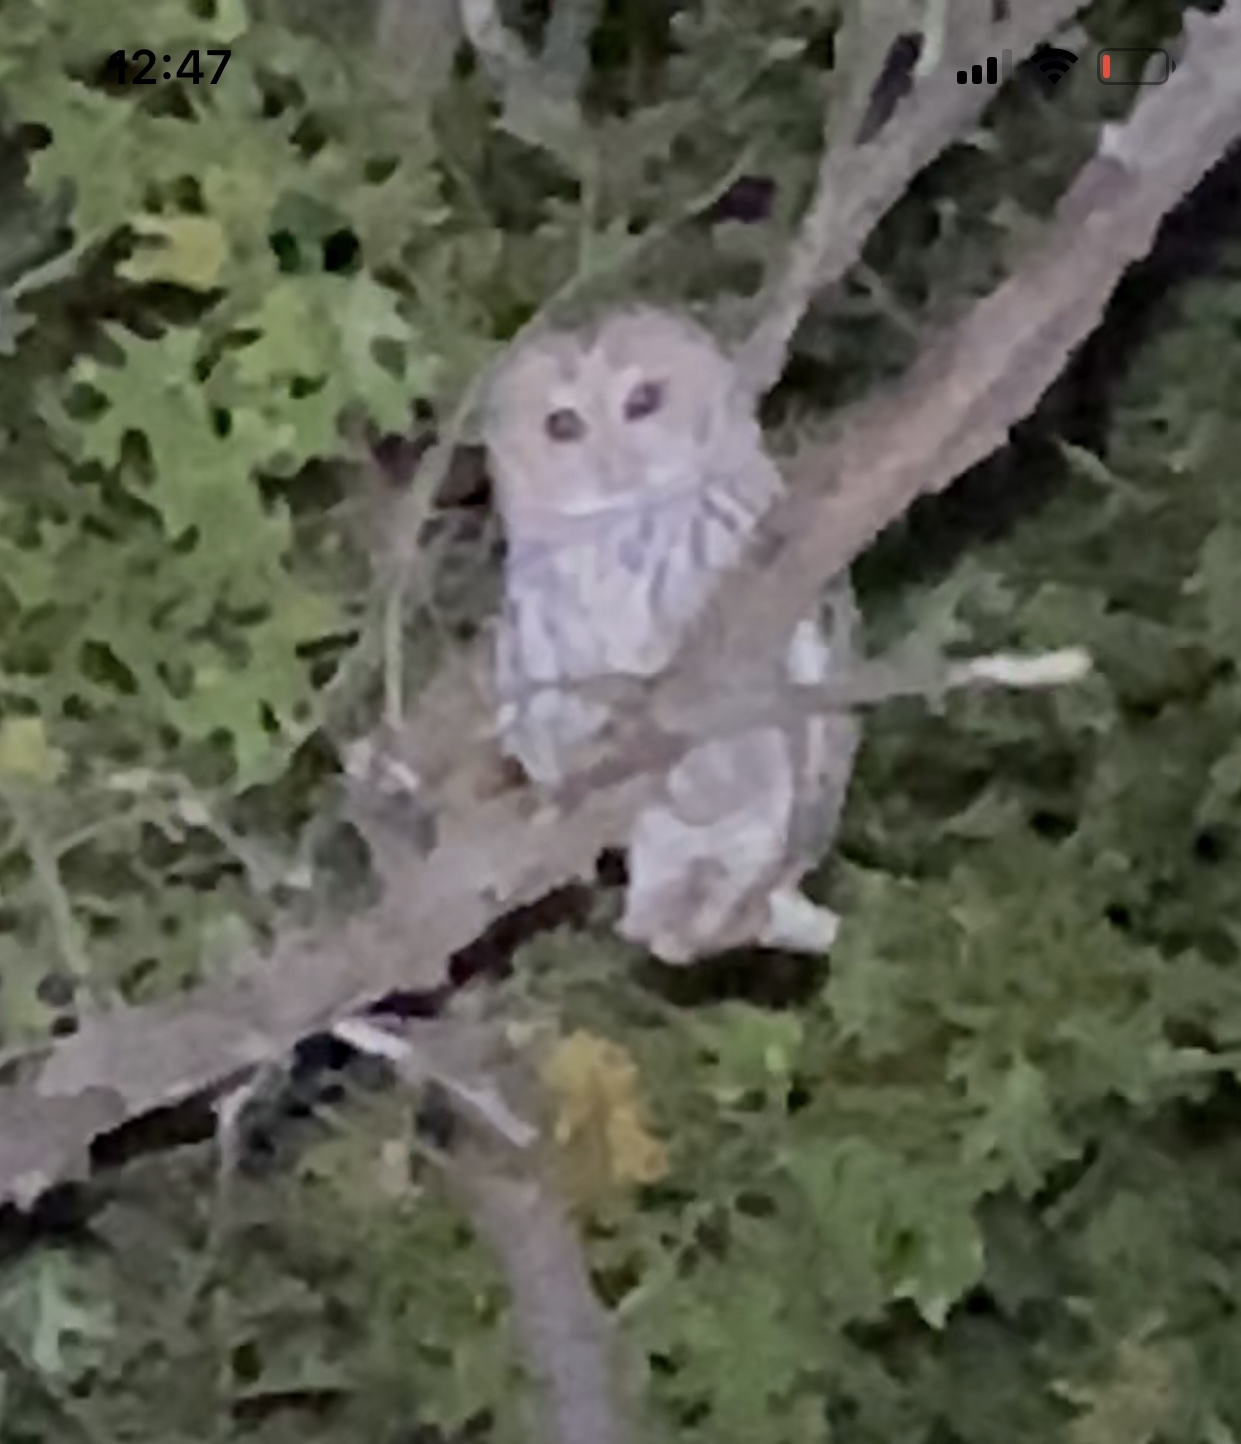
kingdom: Animalia
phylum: Chordata
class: Aves
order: Strigiformes
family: Strigidae
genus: Strix
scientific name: Strix varia
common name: Barred owl
